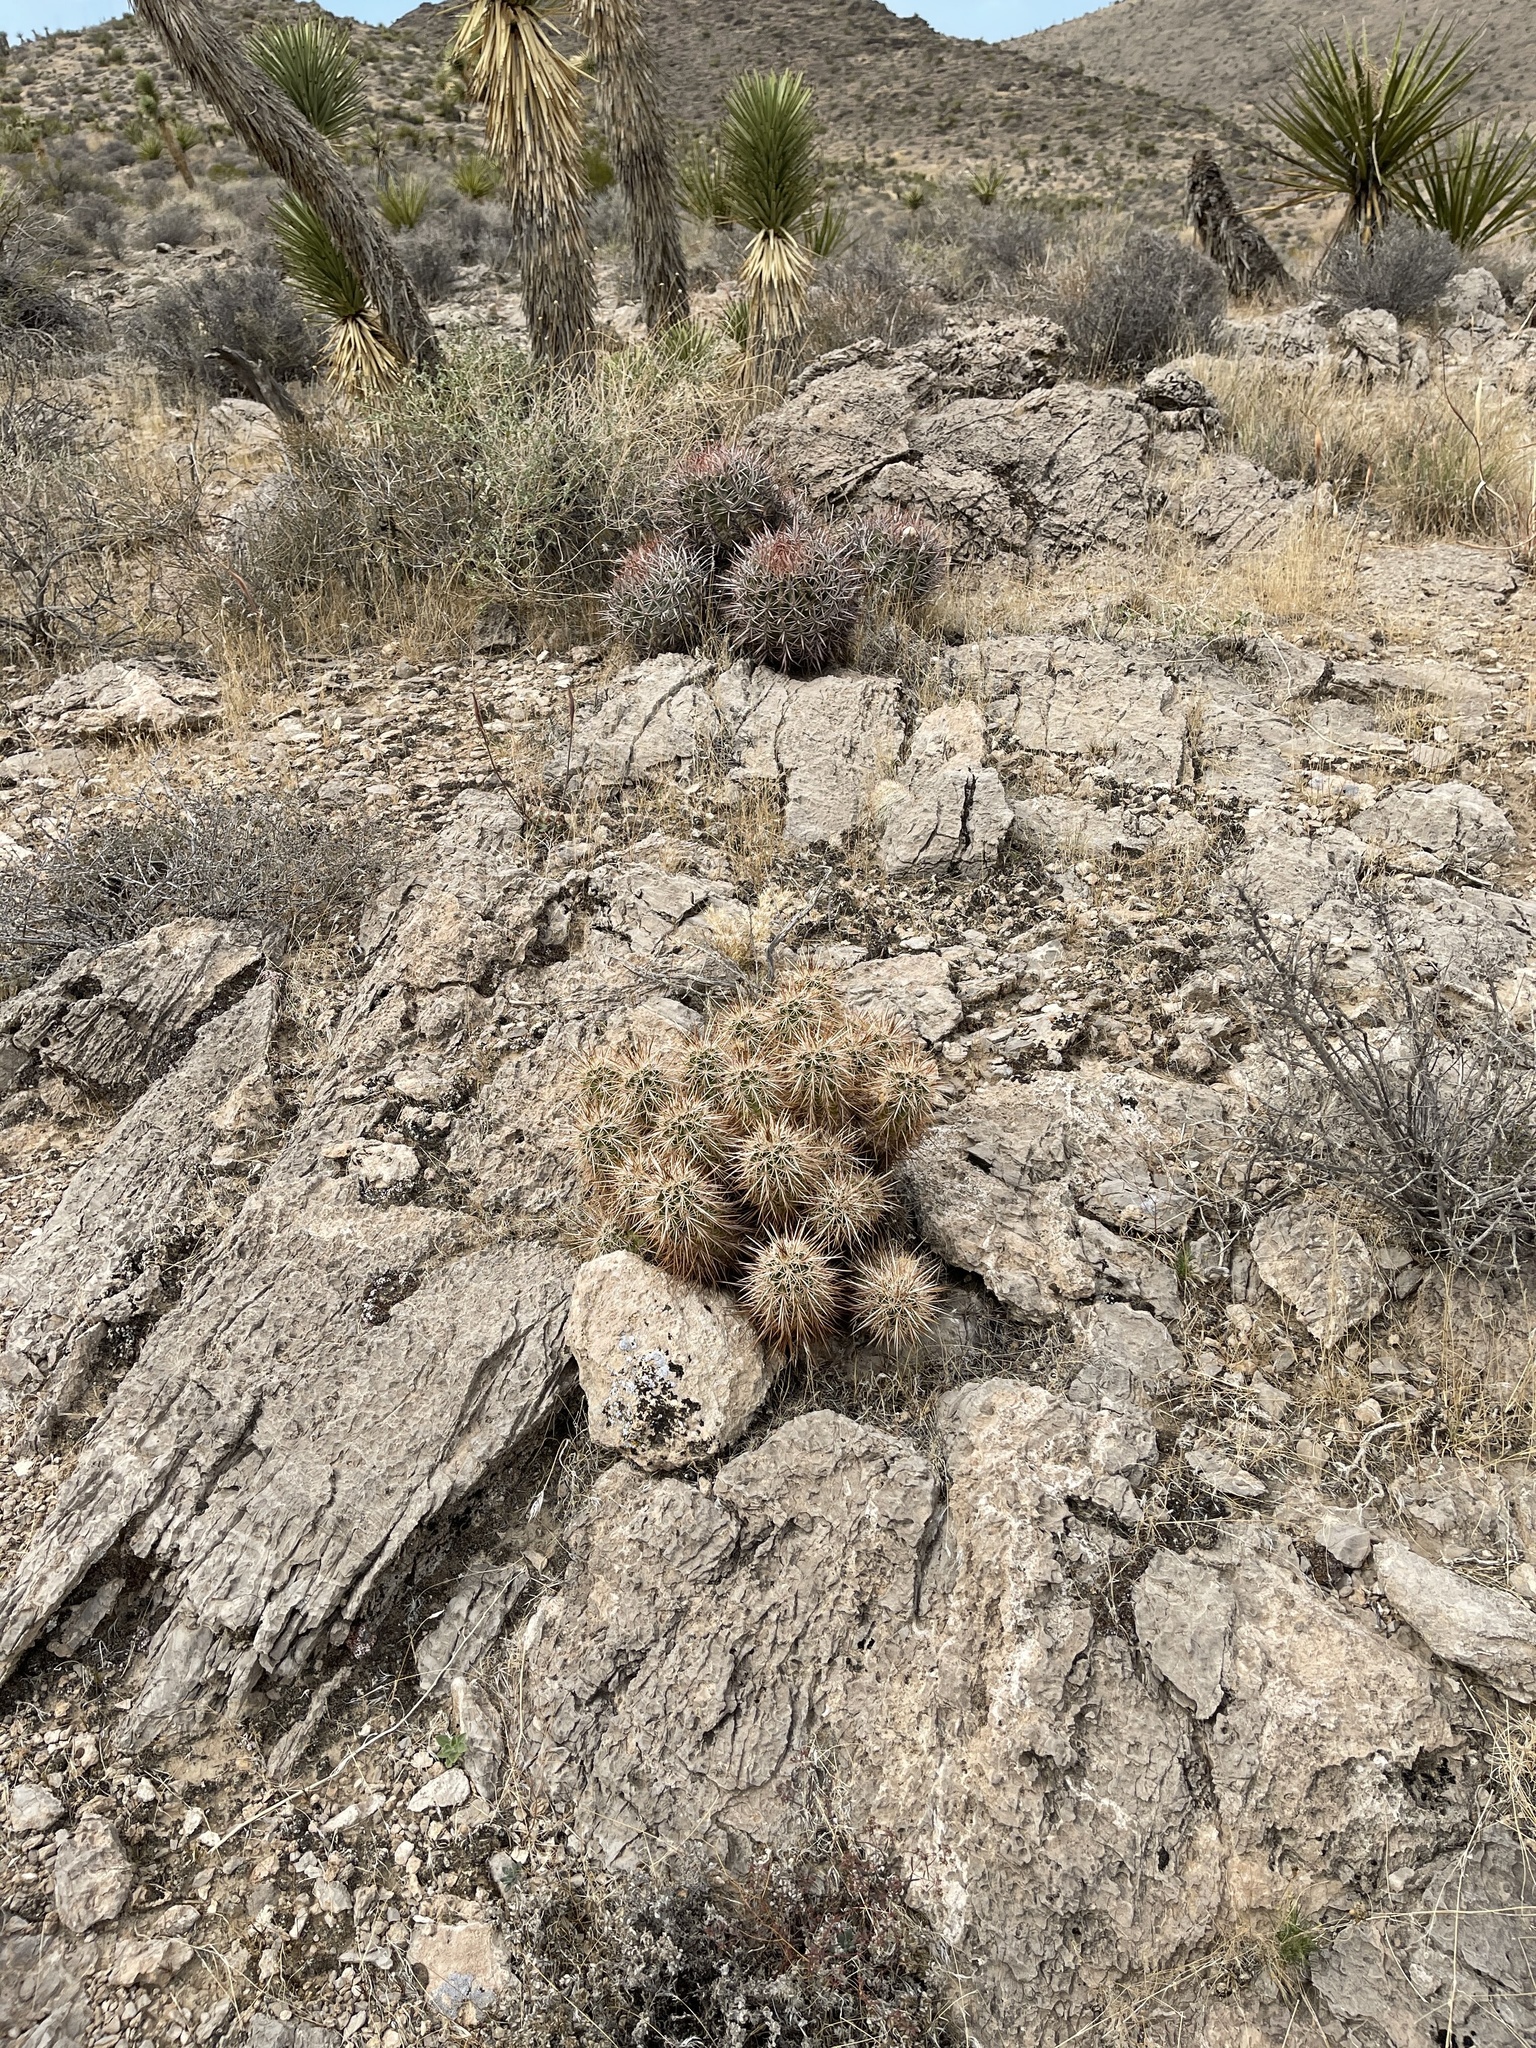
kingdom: Plantae
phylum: Tracheophyta
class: Magnoliopsida
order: Caryophyllales
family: Cactaceae
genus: Echinocereus
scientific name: Echinocereus engelmannii
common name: Engelmann's hedgehog cactus
